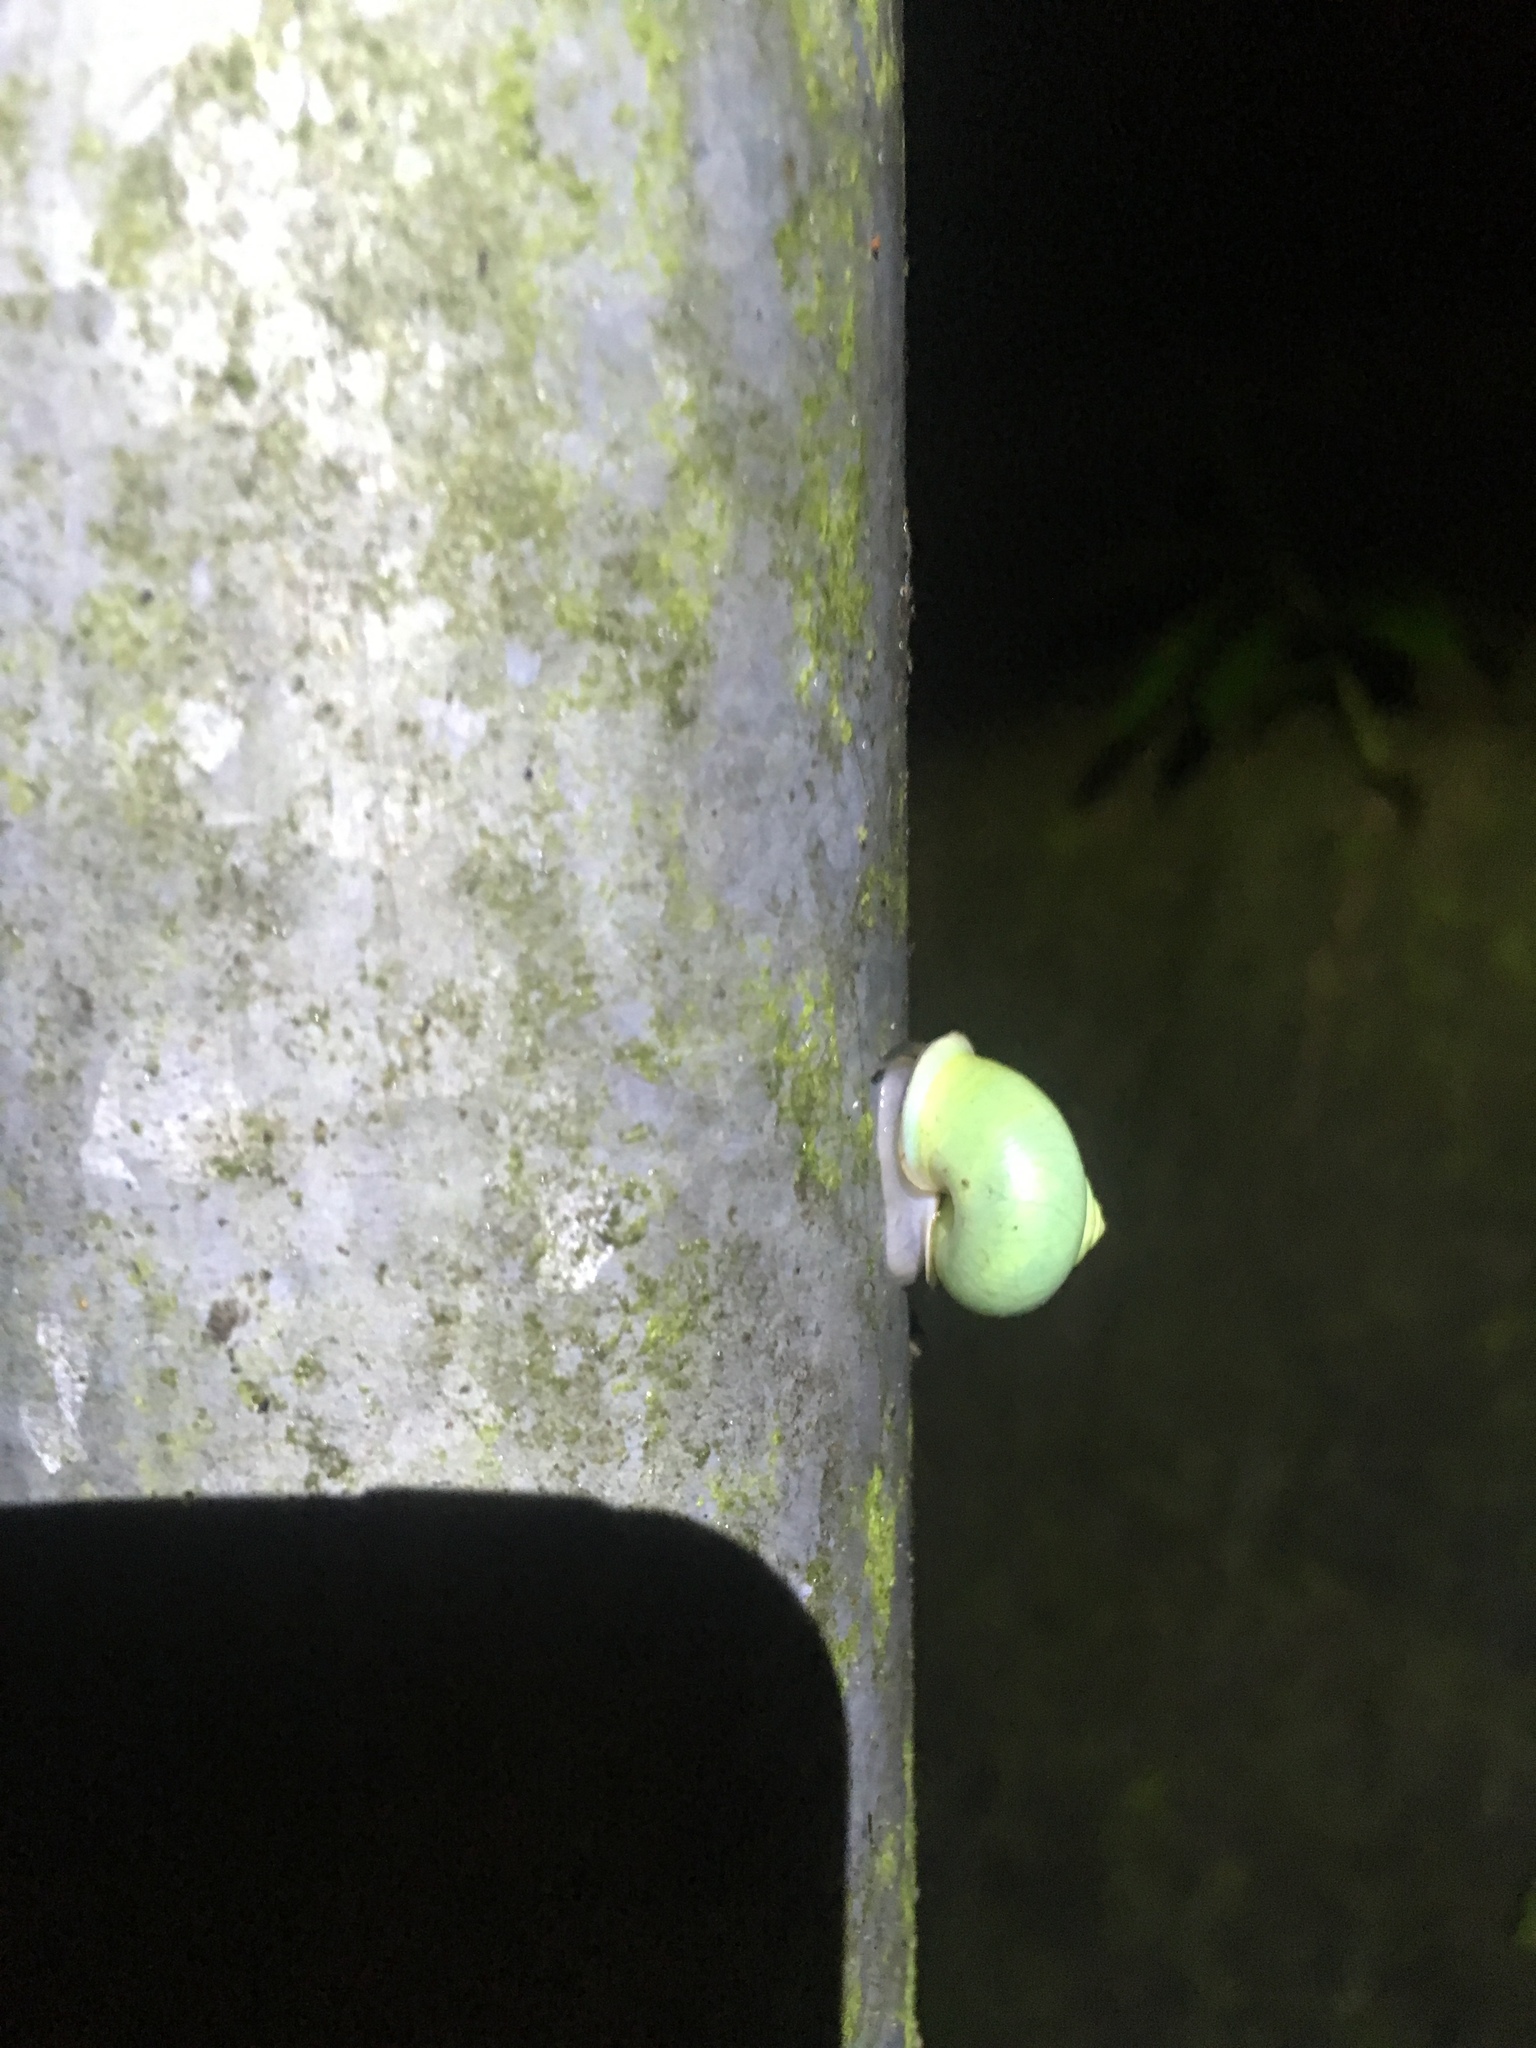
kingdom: Animalia
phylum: Mollusca
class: Gastropoda
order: Architaenioglossa
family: Cyclophoridae
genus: Leptopoma
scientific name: Leptopoma nitidum
